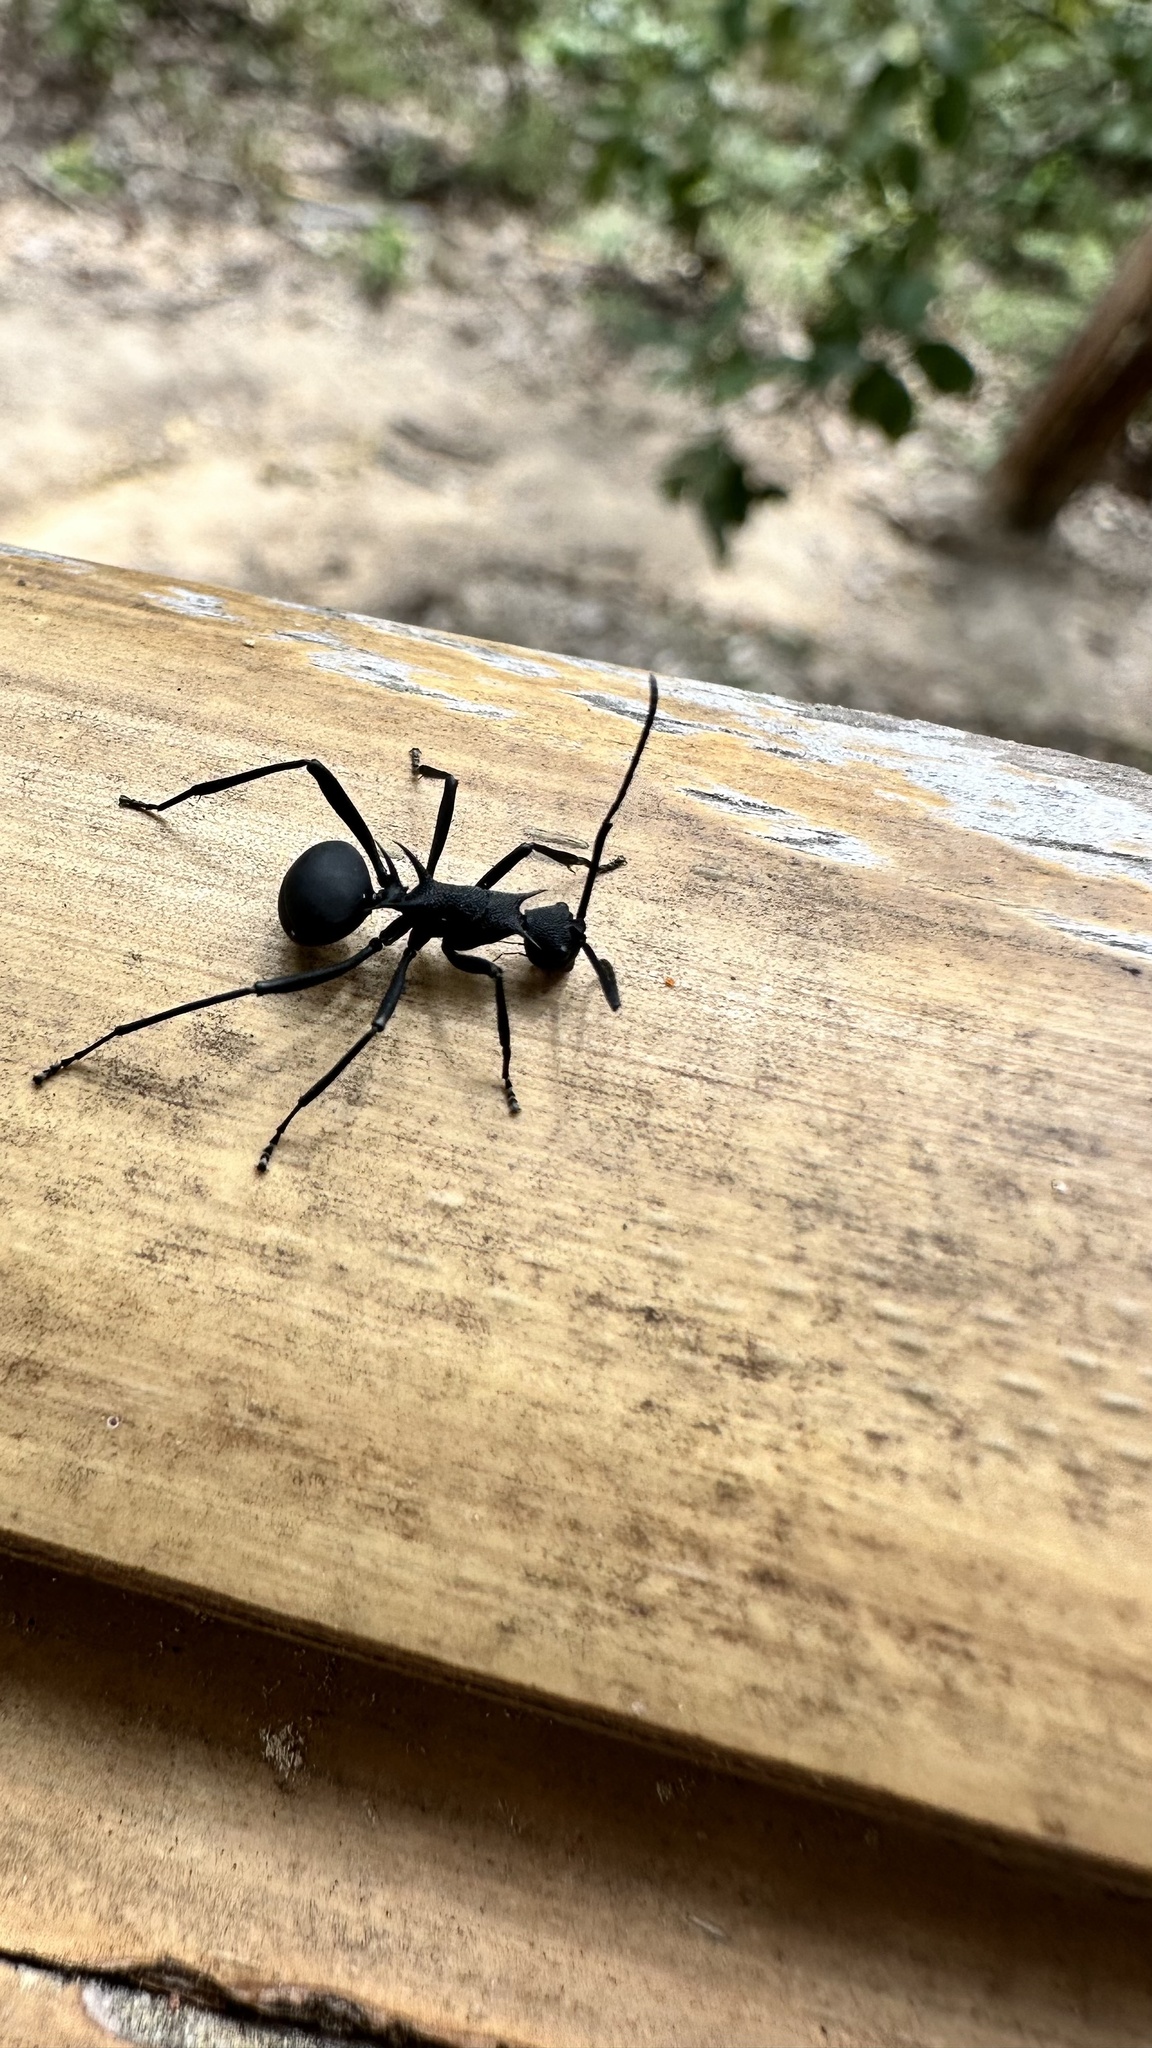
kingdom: Animalia
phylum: Arthropoda
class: Insecta
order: Hymenoptera
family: Formicidae
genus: Polyrhachis
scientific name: Polyrhachis armata
